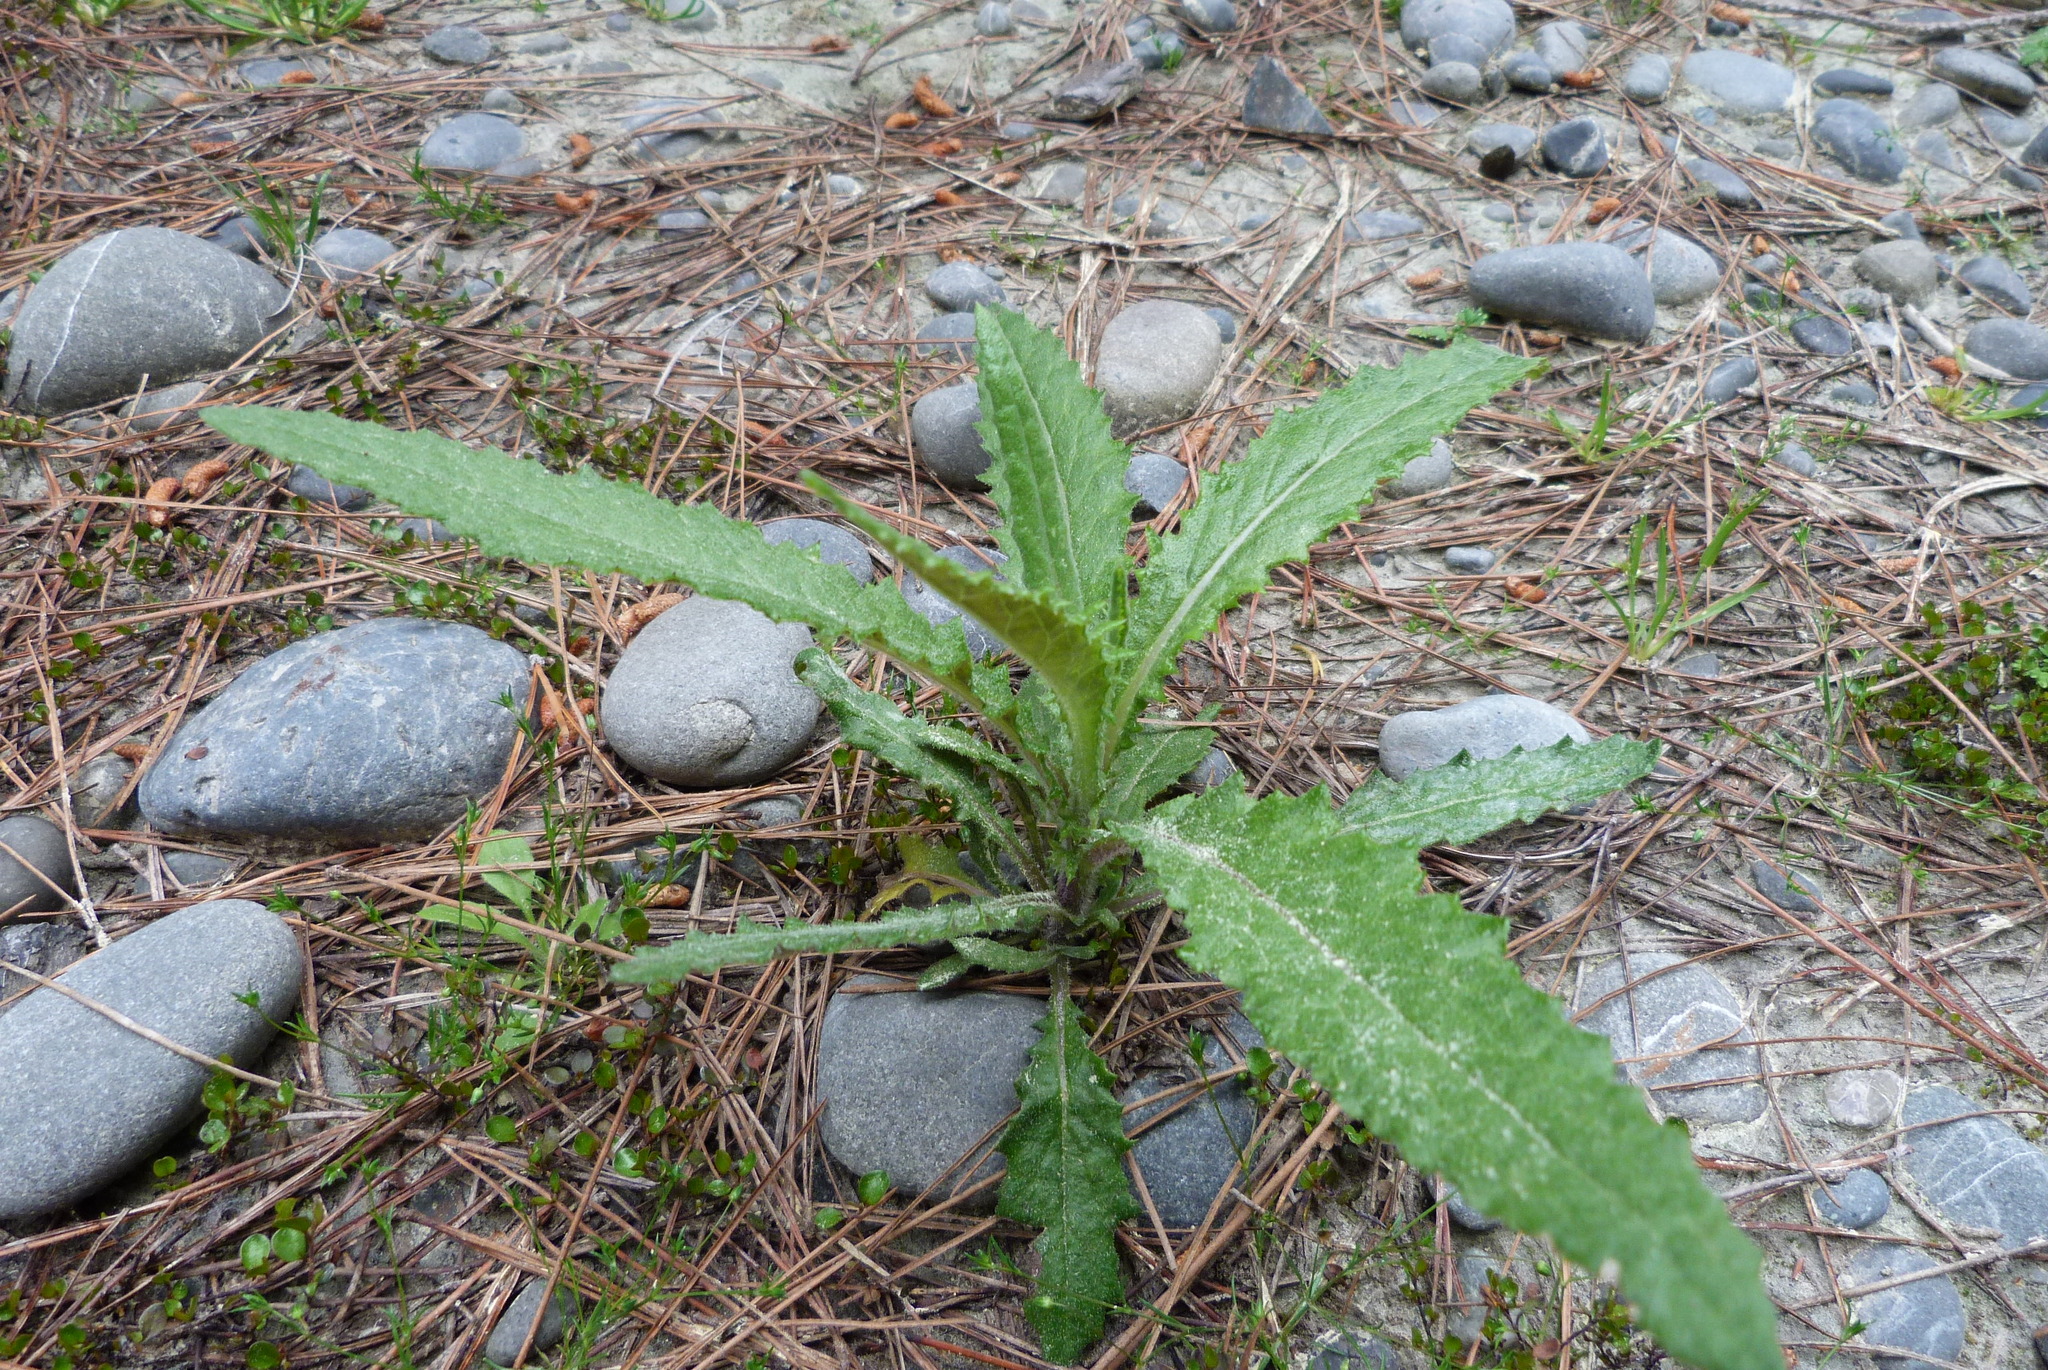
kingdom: Plantae
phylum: Tracheophyta
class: Magnoliopsida
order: Asterales
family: Asteraceae
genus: Senecio
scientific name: Senecio minimus
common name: Toothed fireweed
